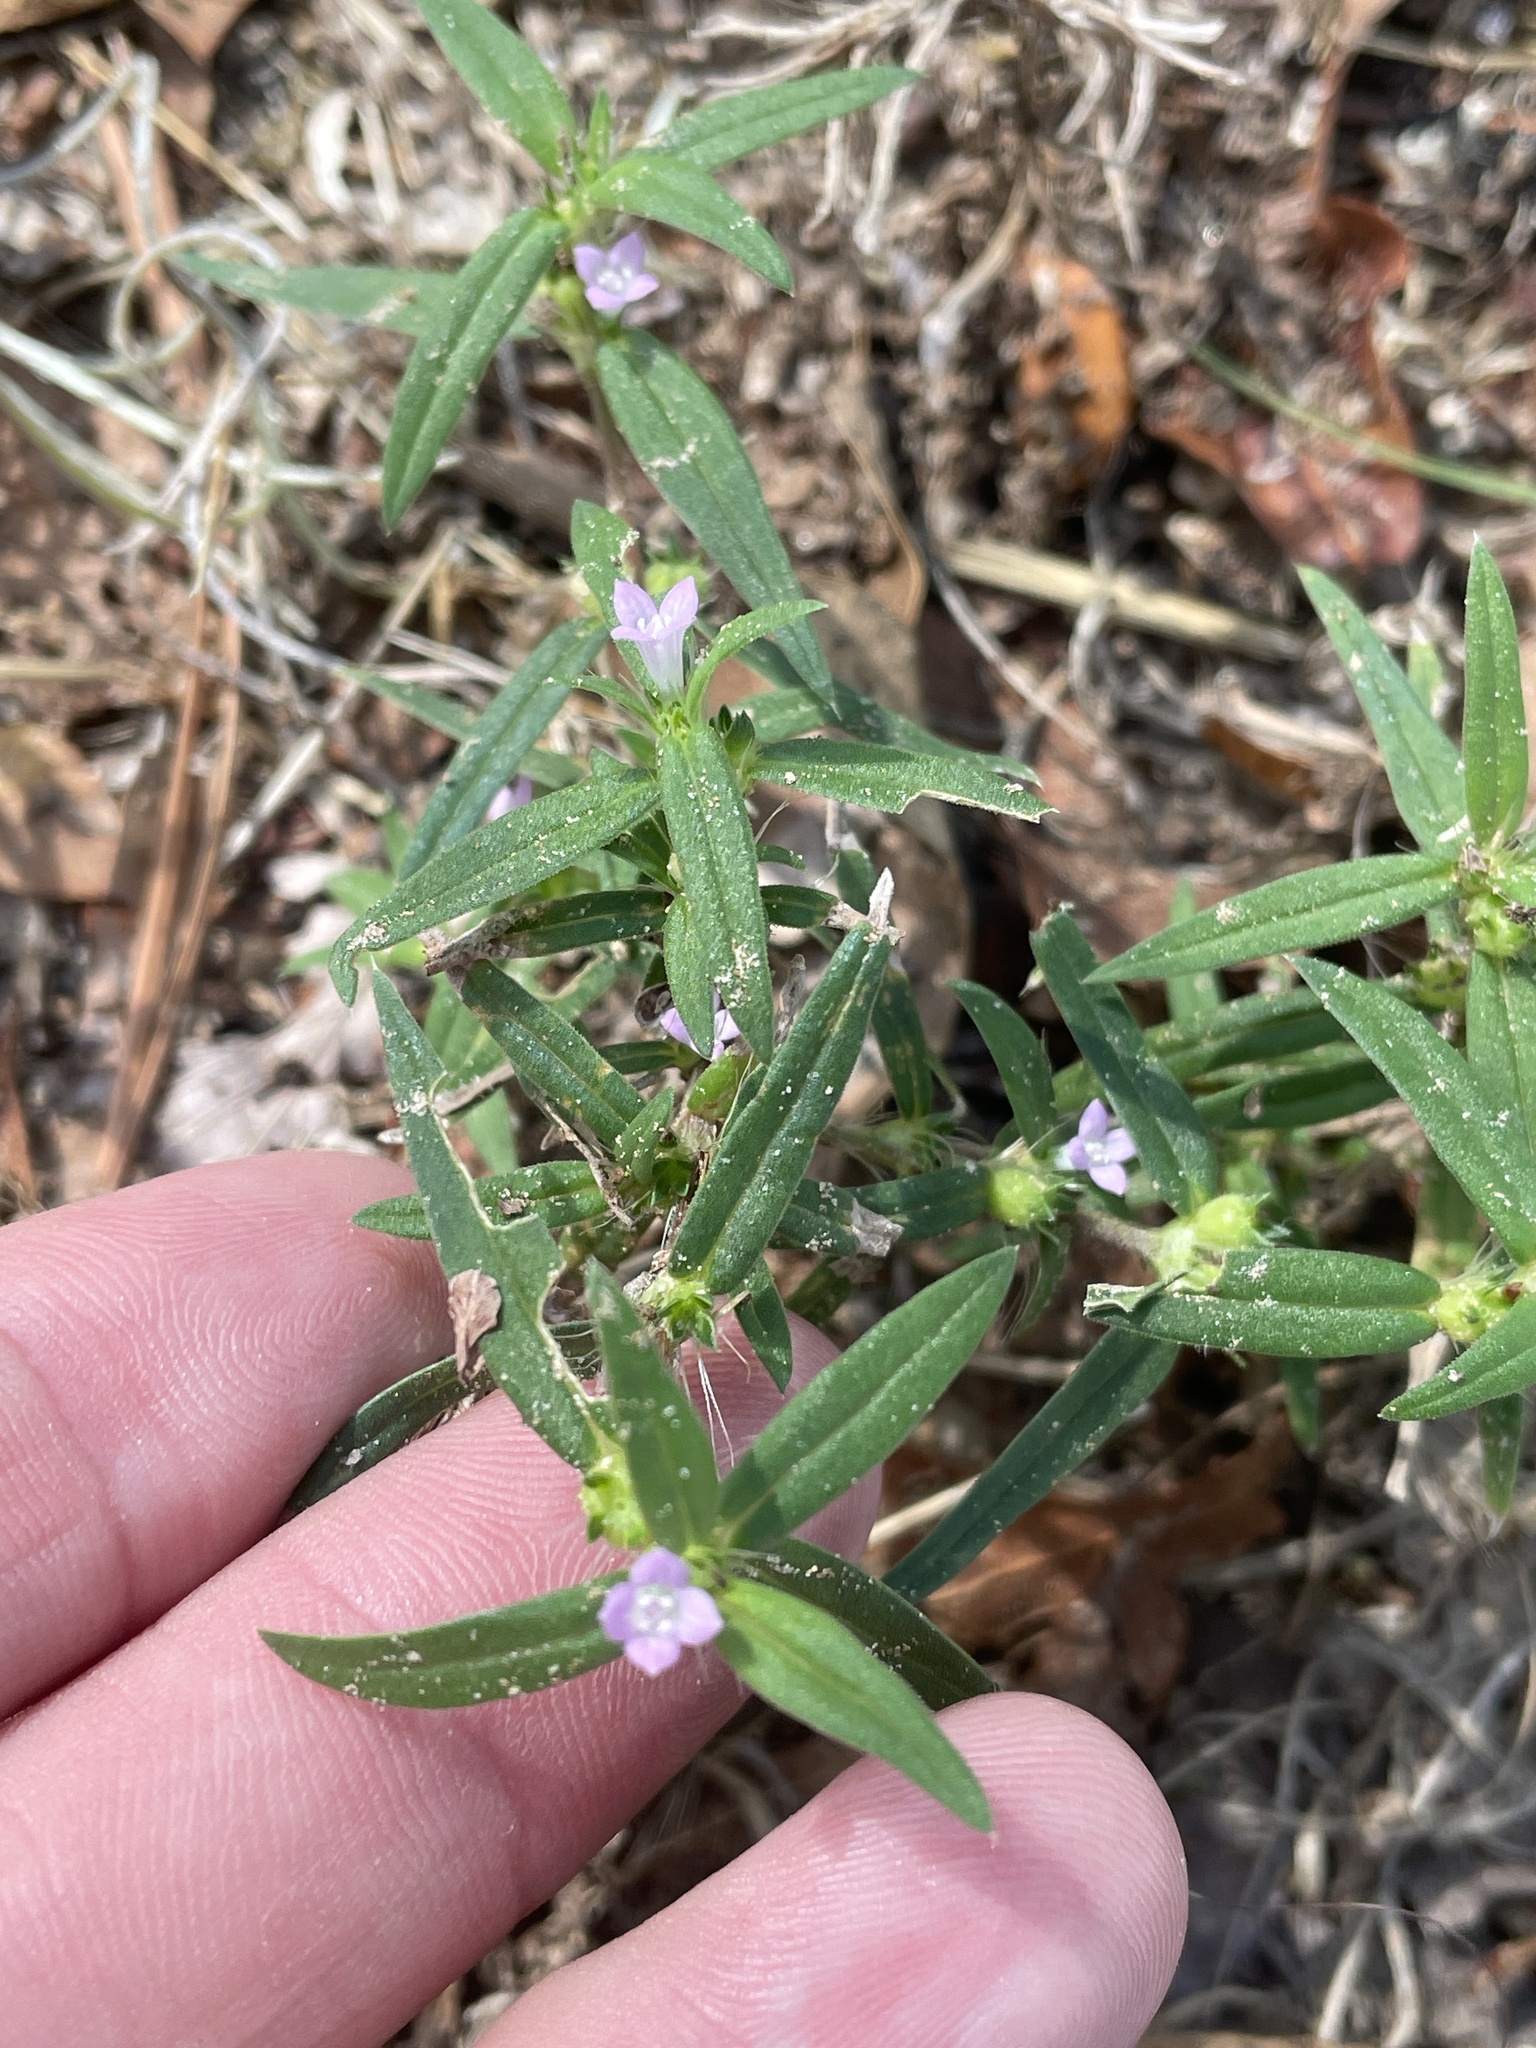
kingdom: Plantae
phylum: Tracheophyta
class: Magnoliopsida
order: Gentianales
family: Rubiaceae
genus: Hexasepalum
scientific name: Hexasepalum teres
